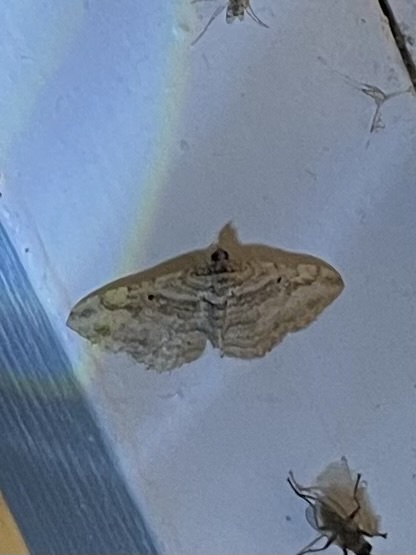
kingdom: Animalia
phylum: Arthropoda
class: Insecta
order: Lepidoptera
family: Geometridae
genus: Costaconvexa
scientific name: Costaconvexa centrostrigaria
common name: Bent-line carpet
